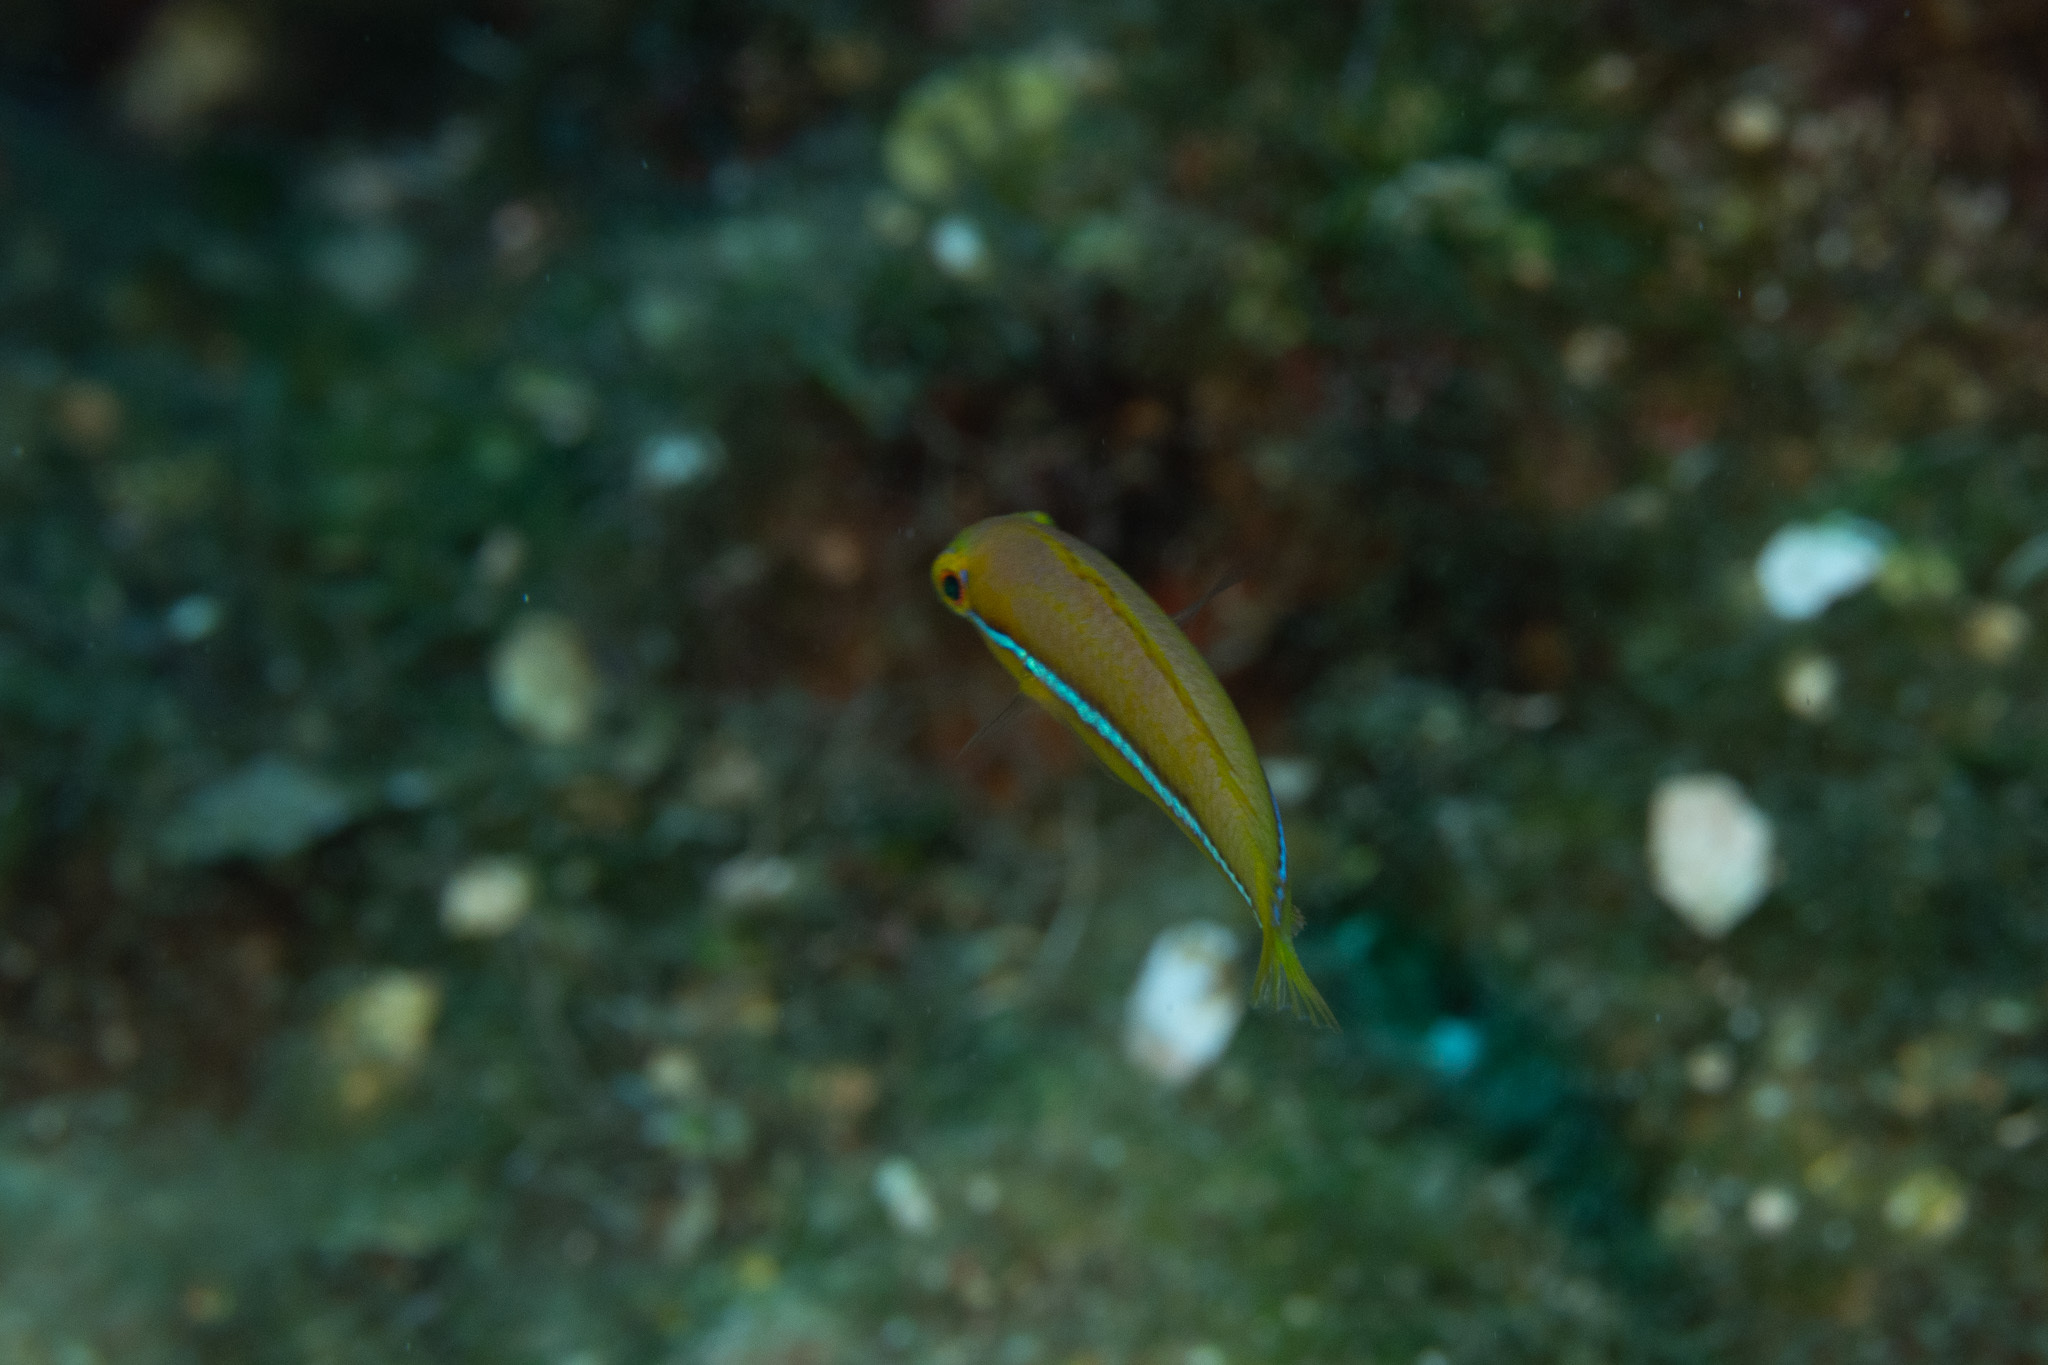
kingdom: Animalia
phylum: Chordata
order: Perciformes
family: Labridae
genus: Halichoeres
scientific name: Halichoeres garnoti
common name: Yellowhead wrasse
